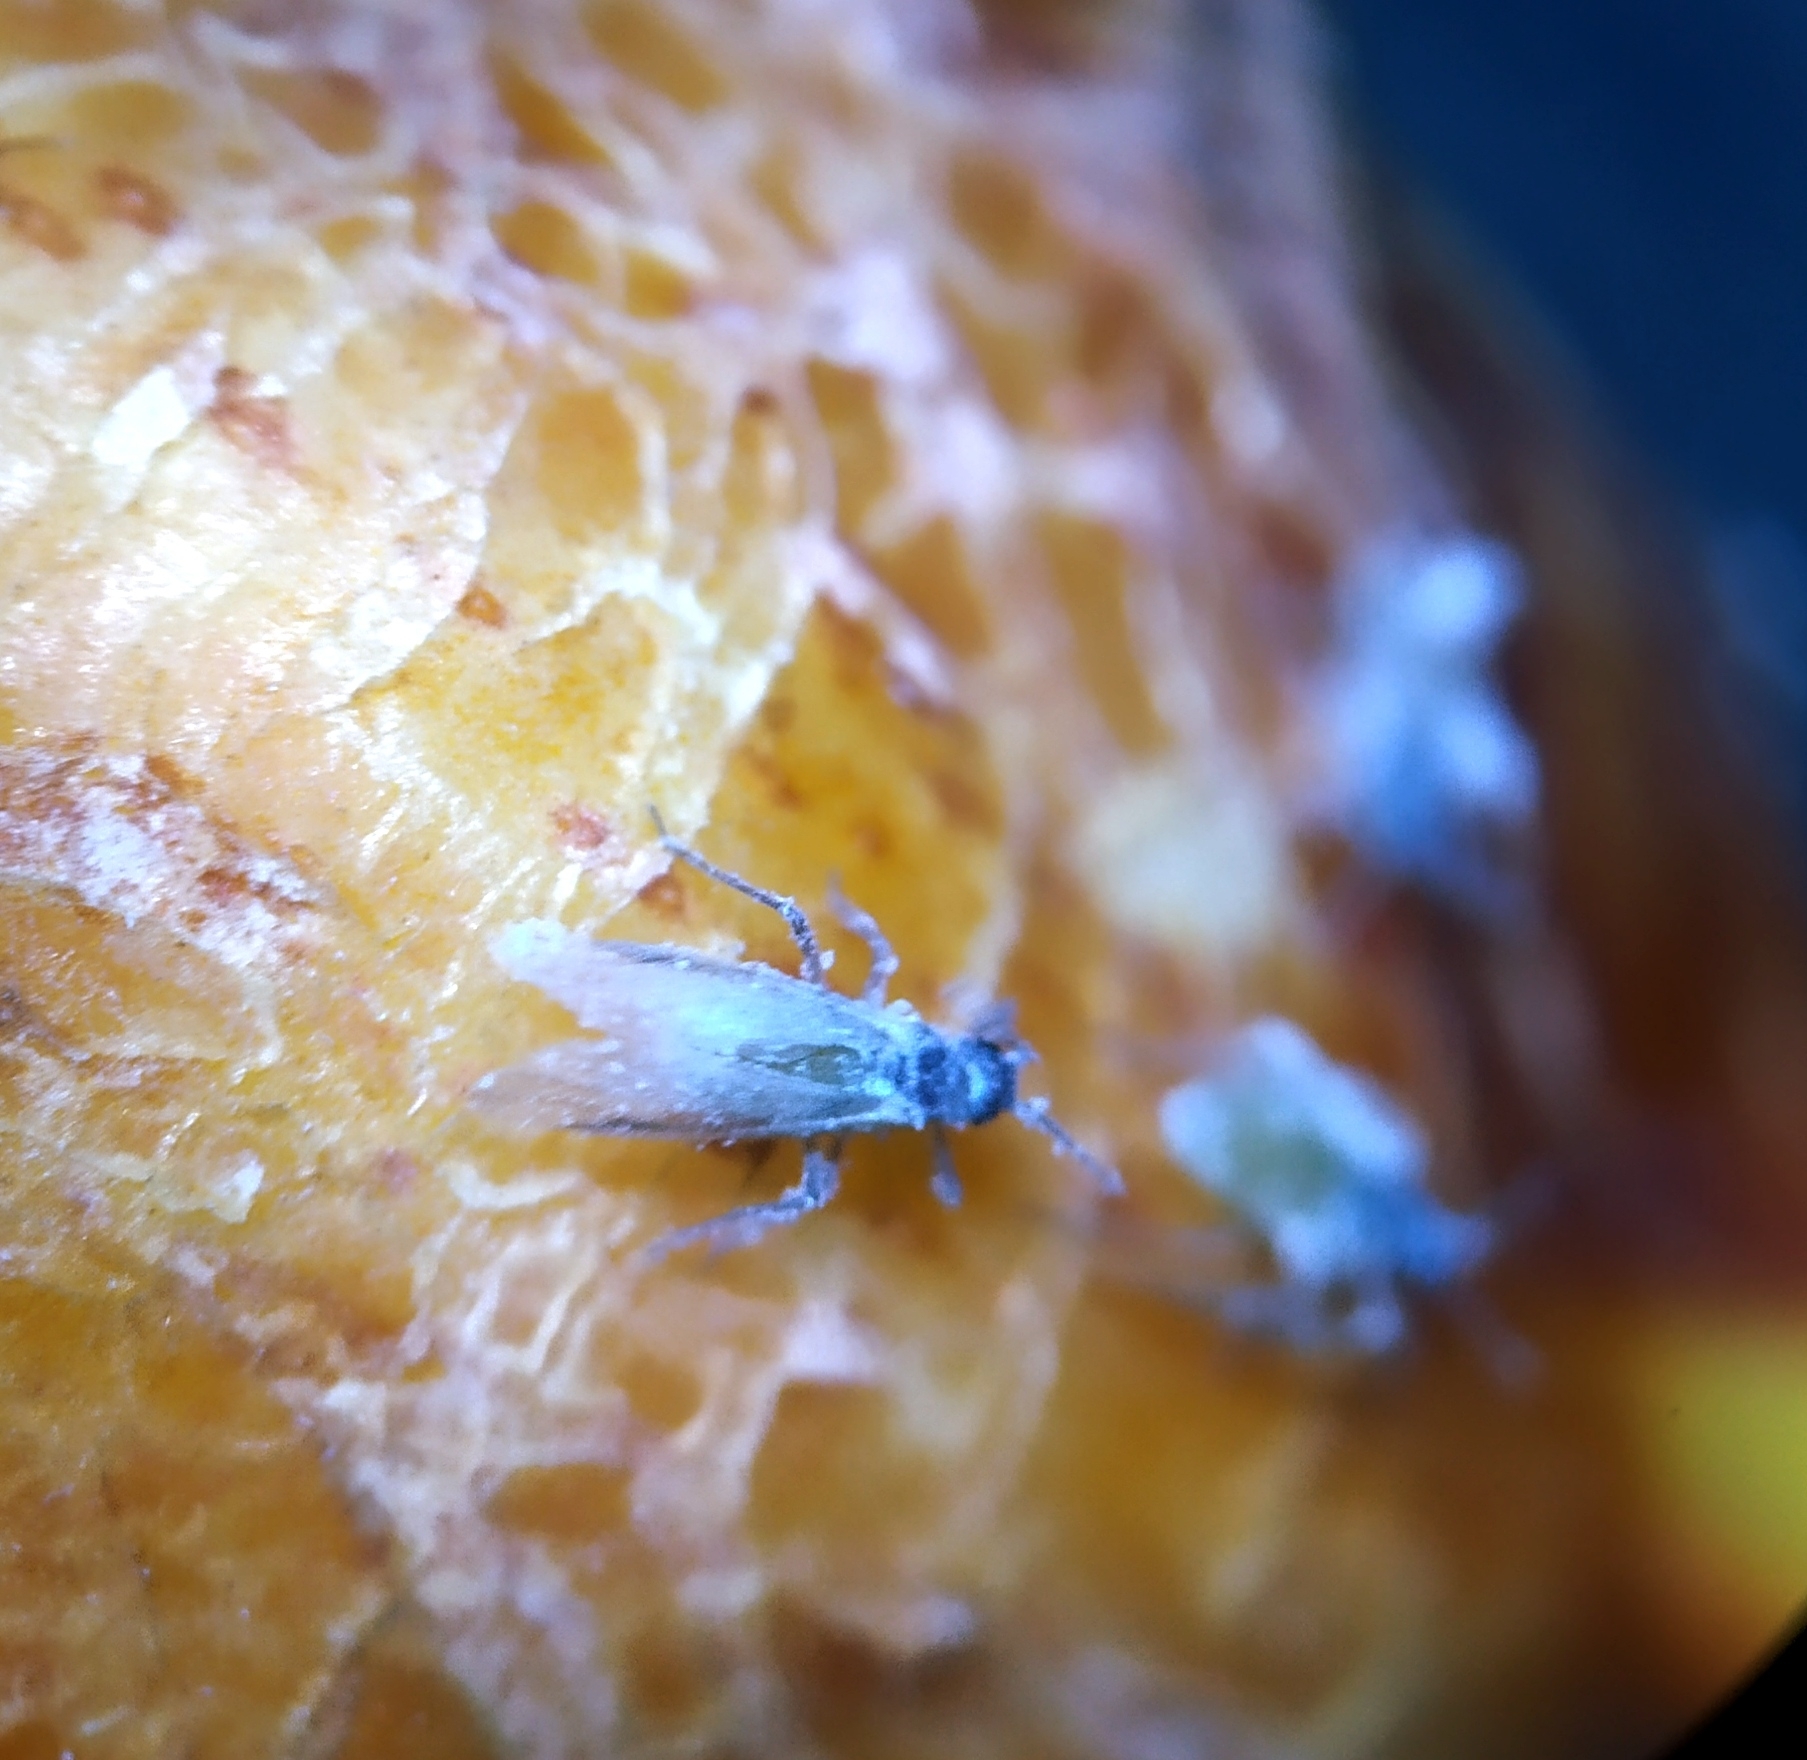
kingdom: Animalia
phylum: Arthropoda
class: Insecta
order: Hemiptera
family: Aphididae
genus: Pemphigus
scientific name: Pemphigus spyrothecae
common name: Aphid
